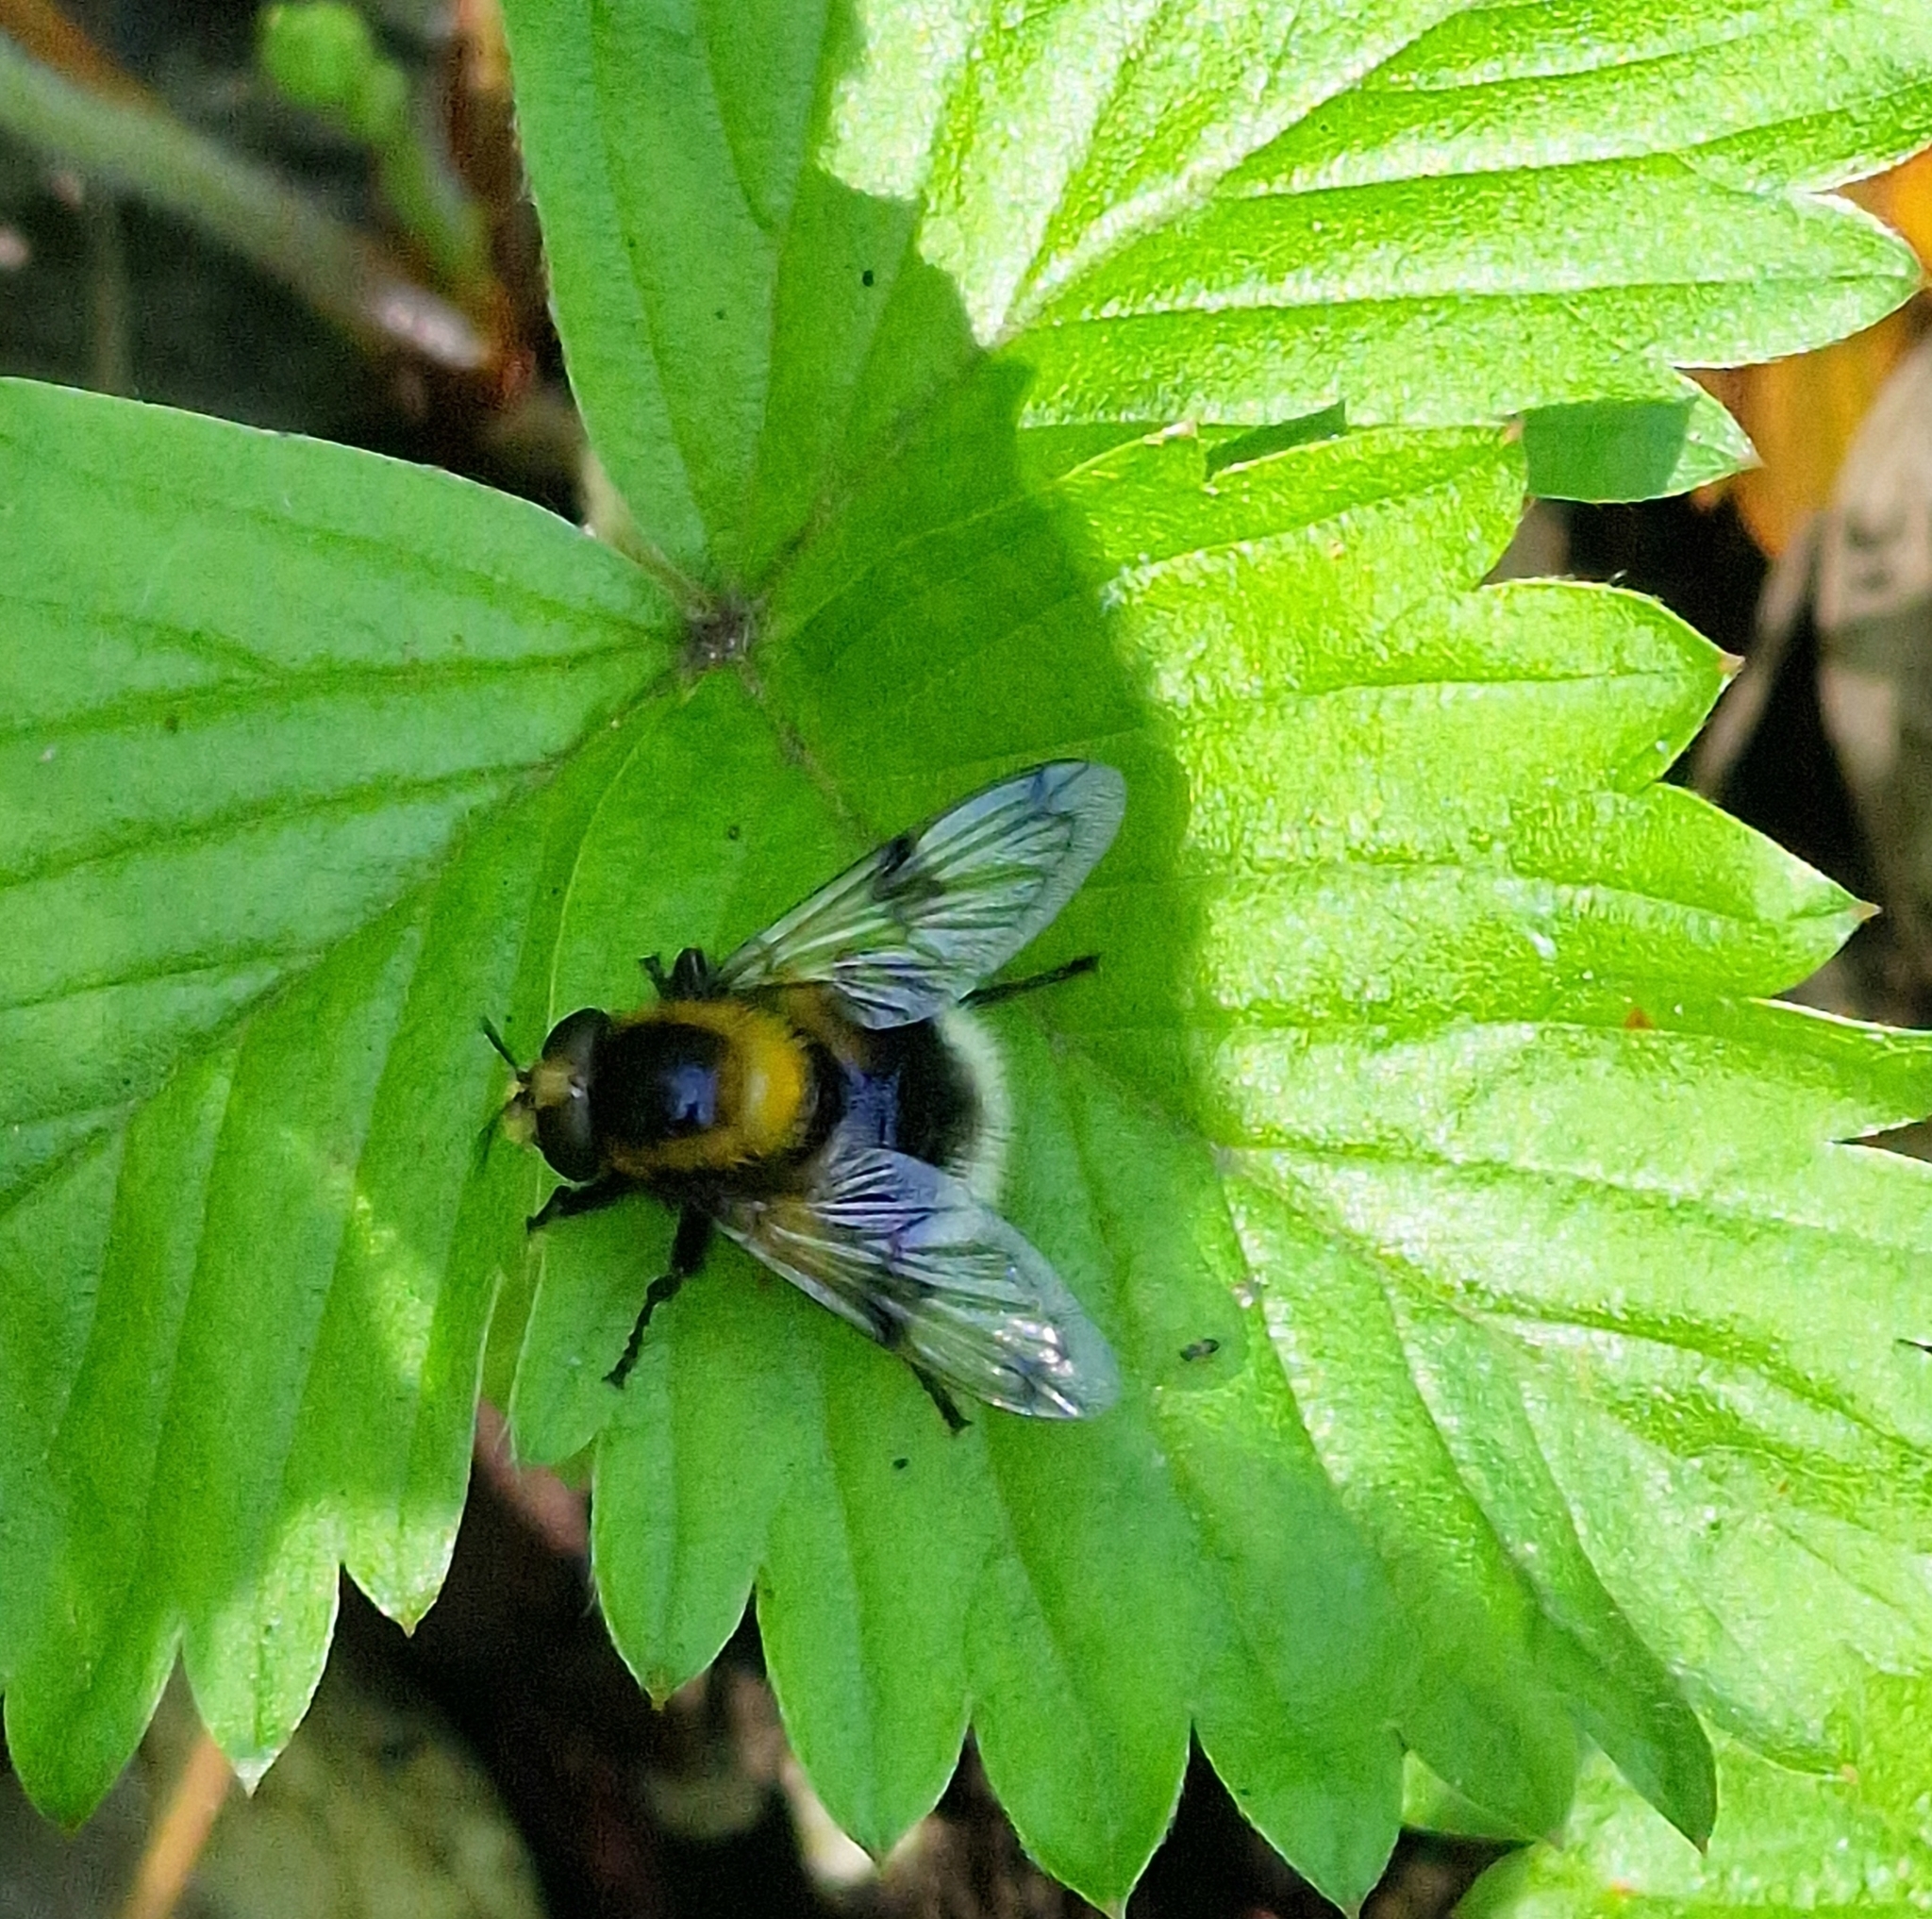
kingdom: Animalia
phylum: Arthropoda
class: Insecta
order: Diptera
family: Syrphidae
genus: Volucella
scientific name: Volucella bombylans
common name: Bumble bee hover fly
